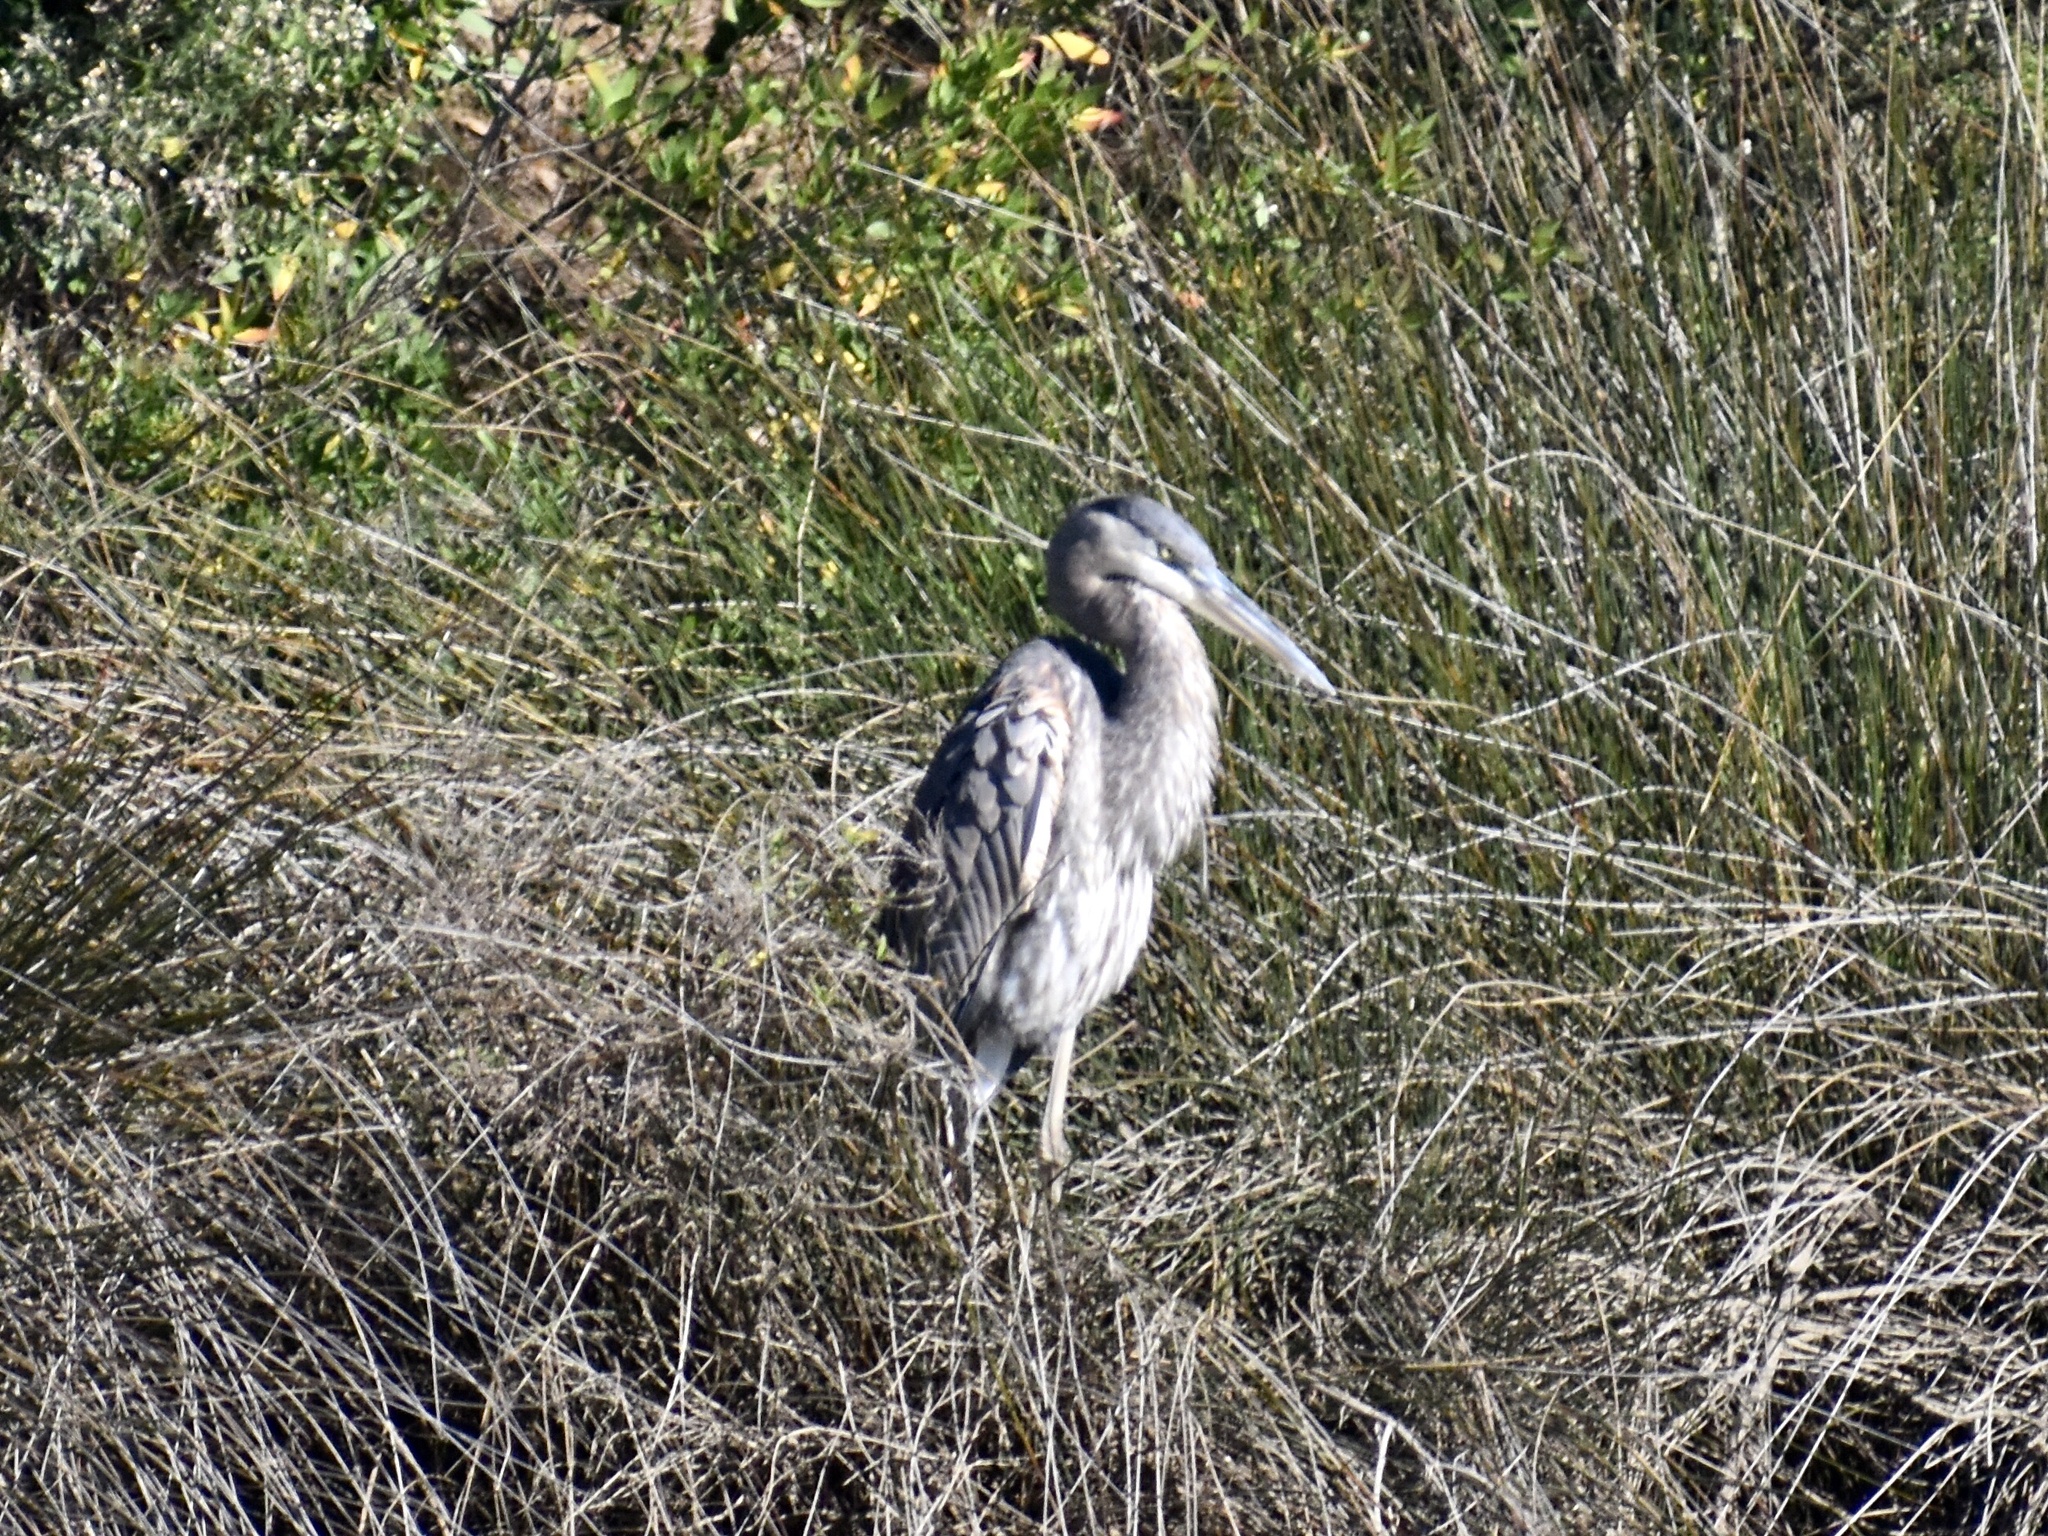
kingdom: Animalia
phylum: Chordata
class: Aves
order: Pelecaniformes
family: Ardeidae
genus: Ardea
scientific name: Ardea herodias
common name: Great blue heron
